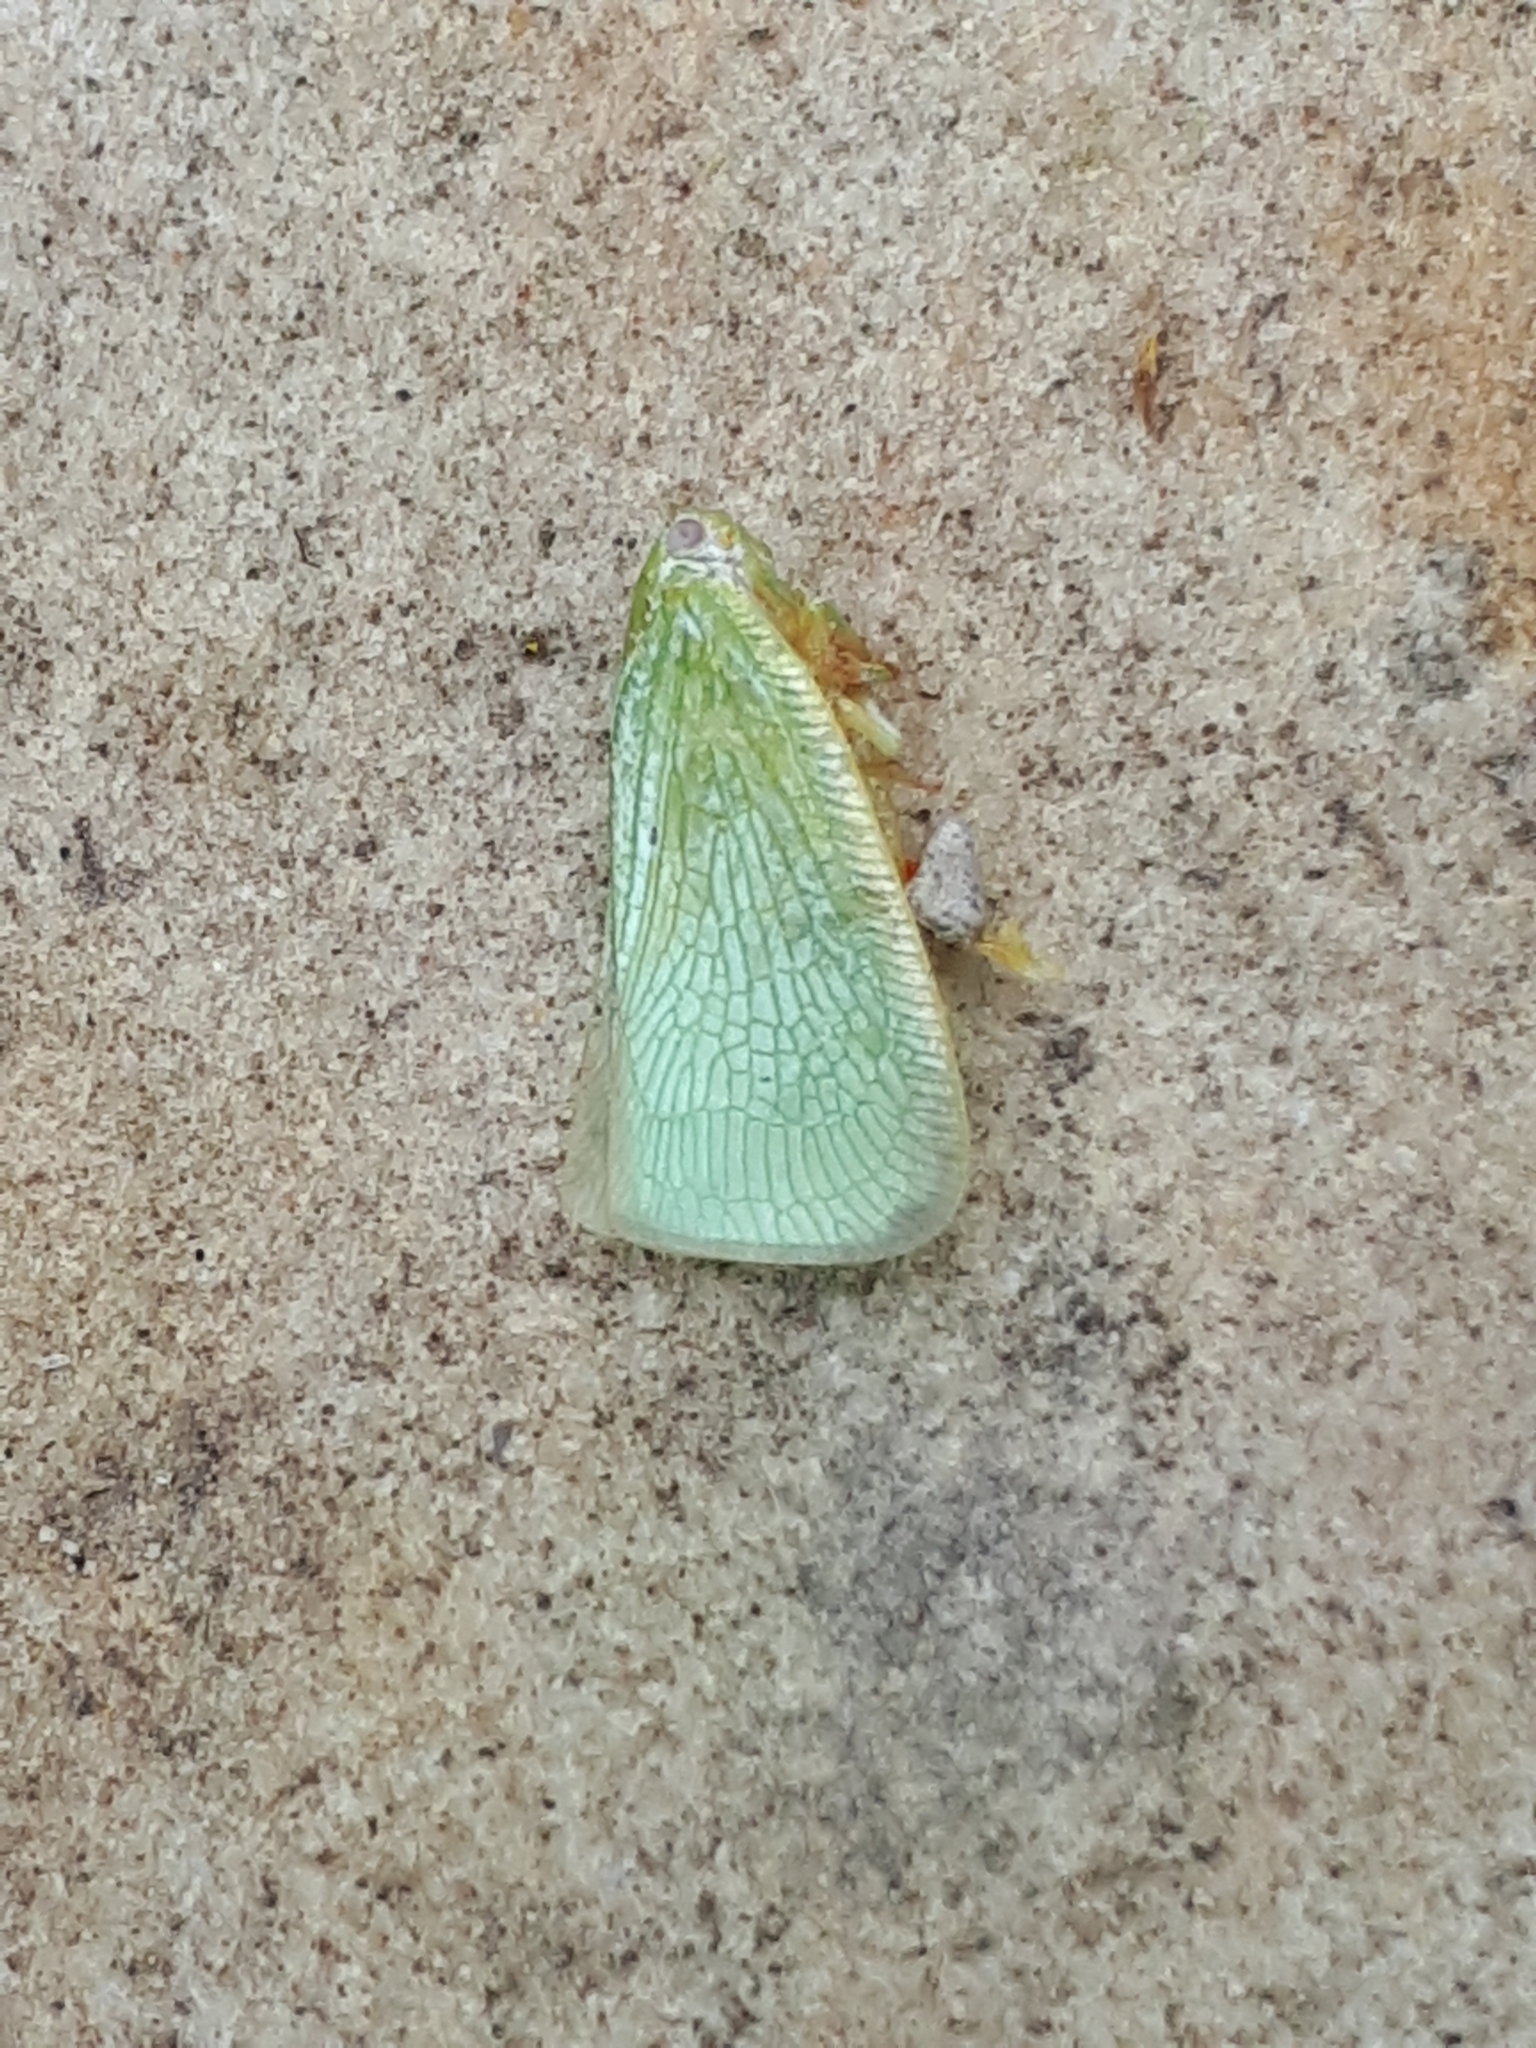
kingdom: Animalia
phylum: Arthropoda
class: Insecta
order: Hemiptera
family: Flatidae
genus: Flatormenis
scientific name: Flatormenis proxima
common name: Northern flatid planthopper
